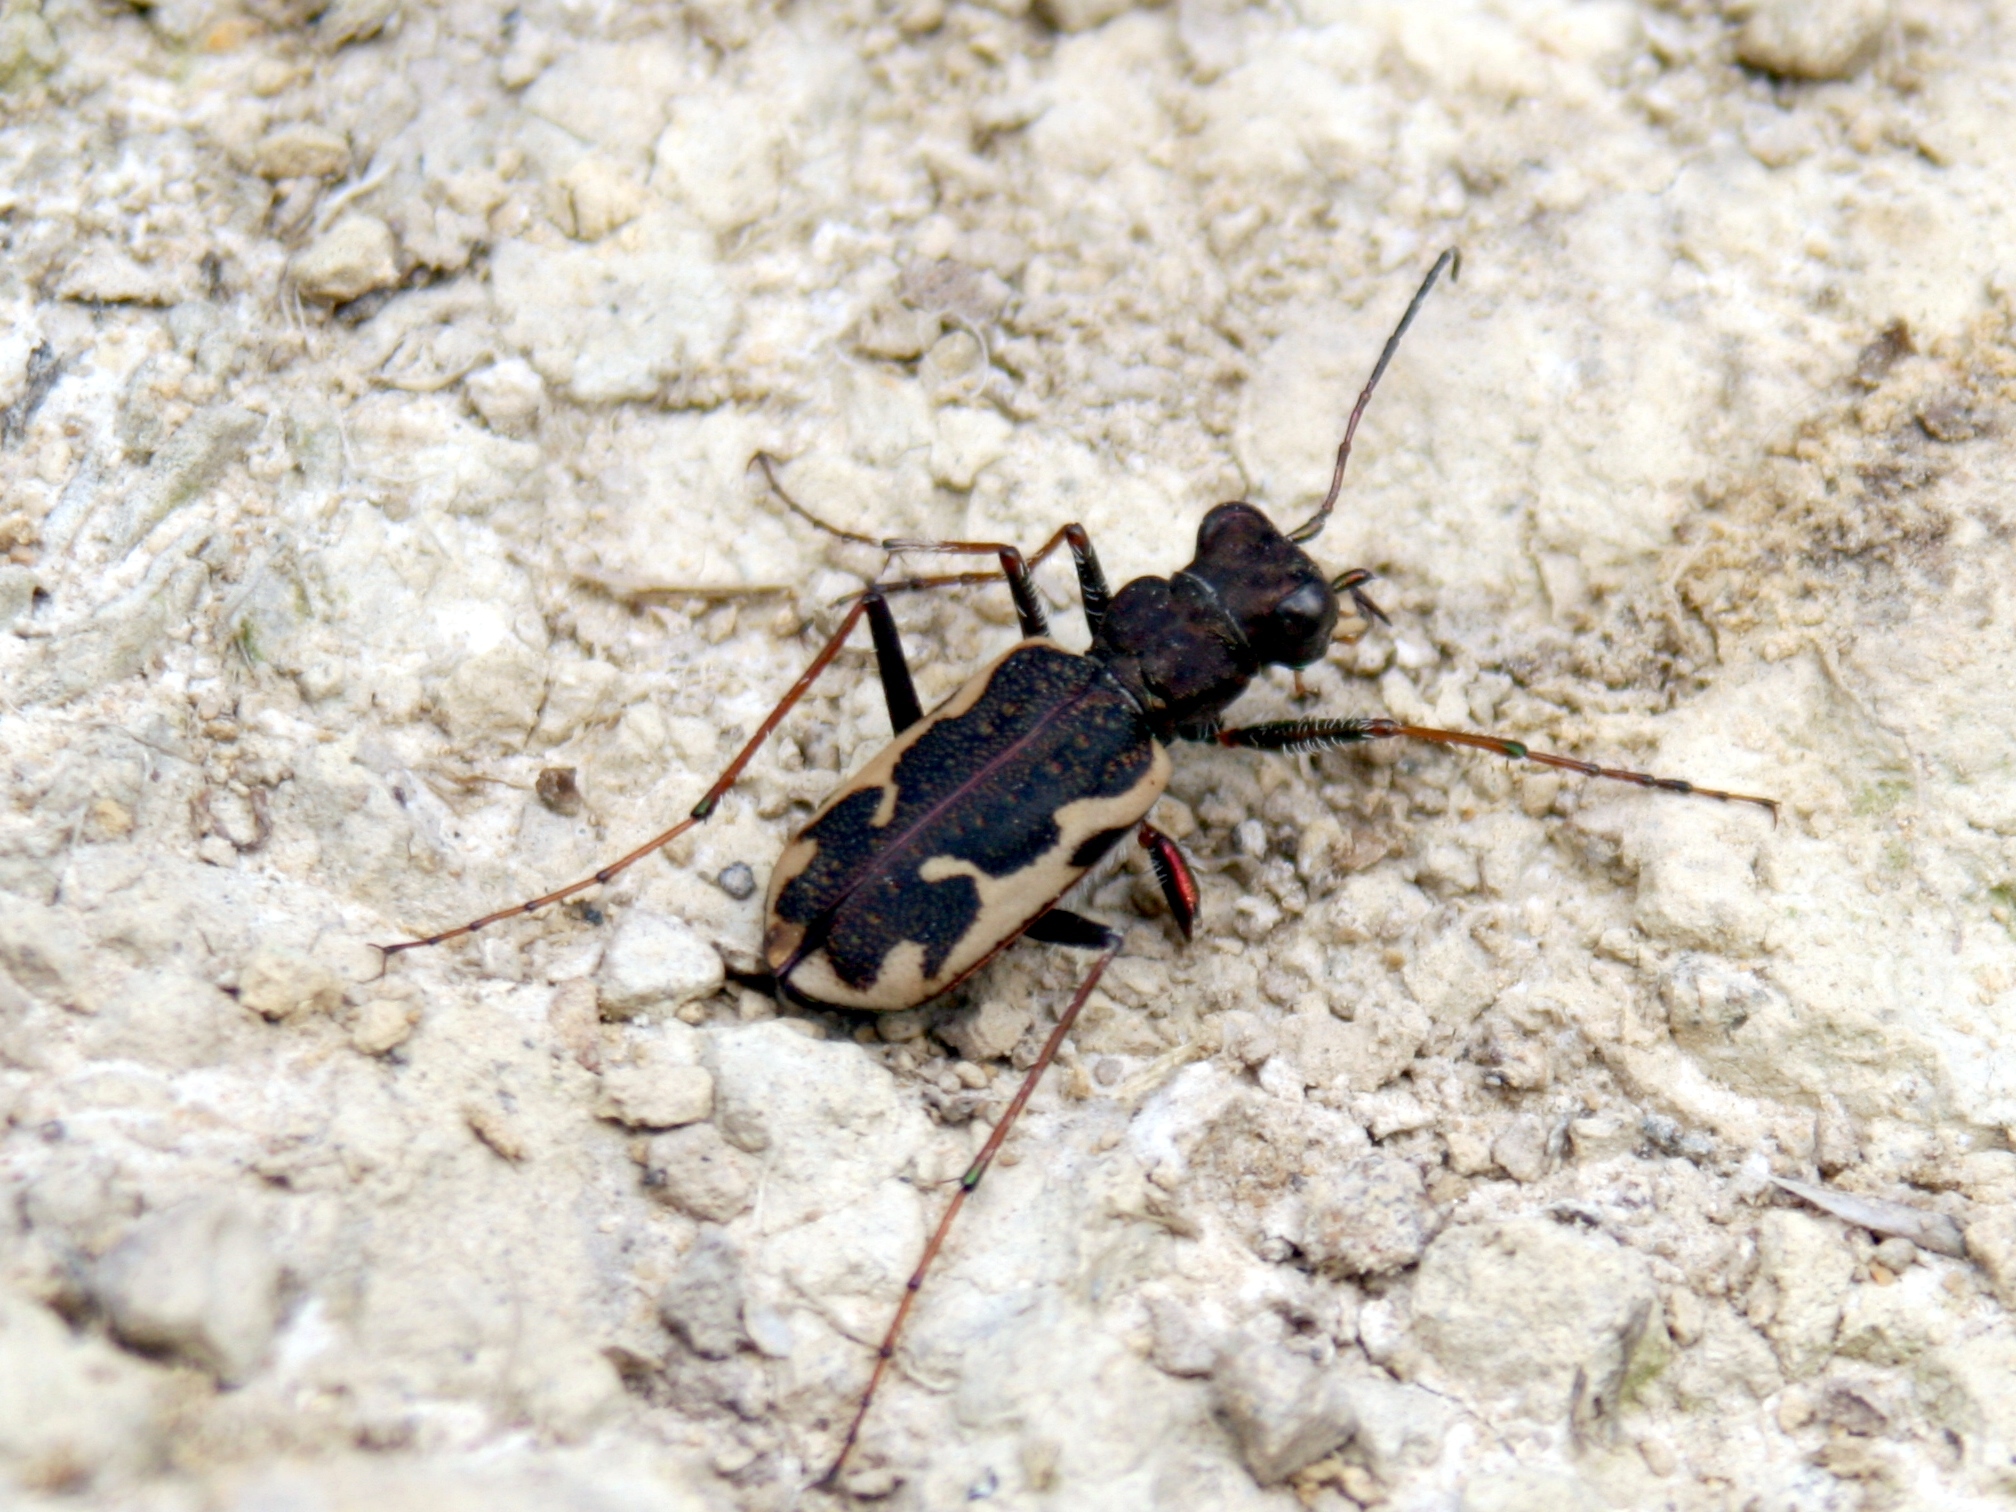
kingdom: Animalia
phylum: Arthropoda
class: Insecta
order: Coleoptera
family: Carabidae
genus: Neocicindela
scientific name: Neocicindela tuberculata
